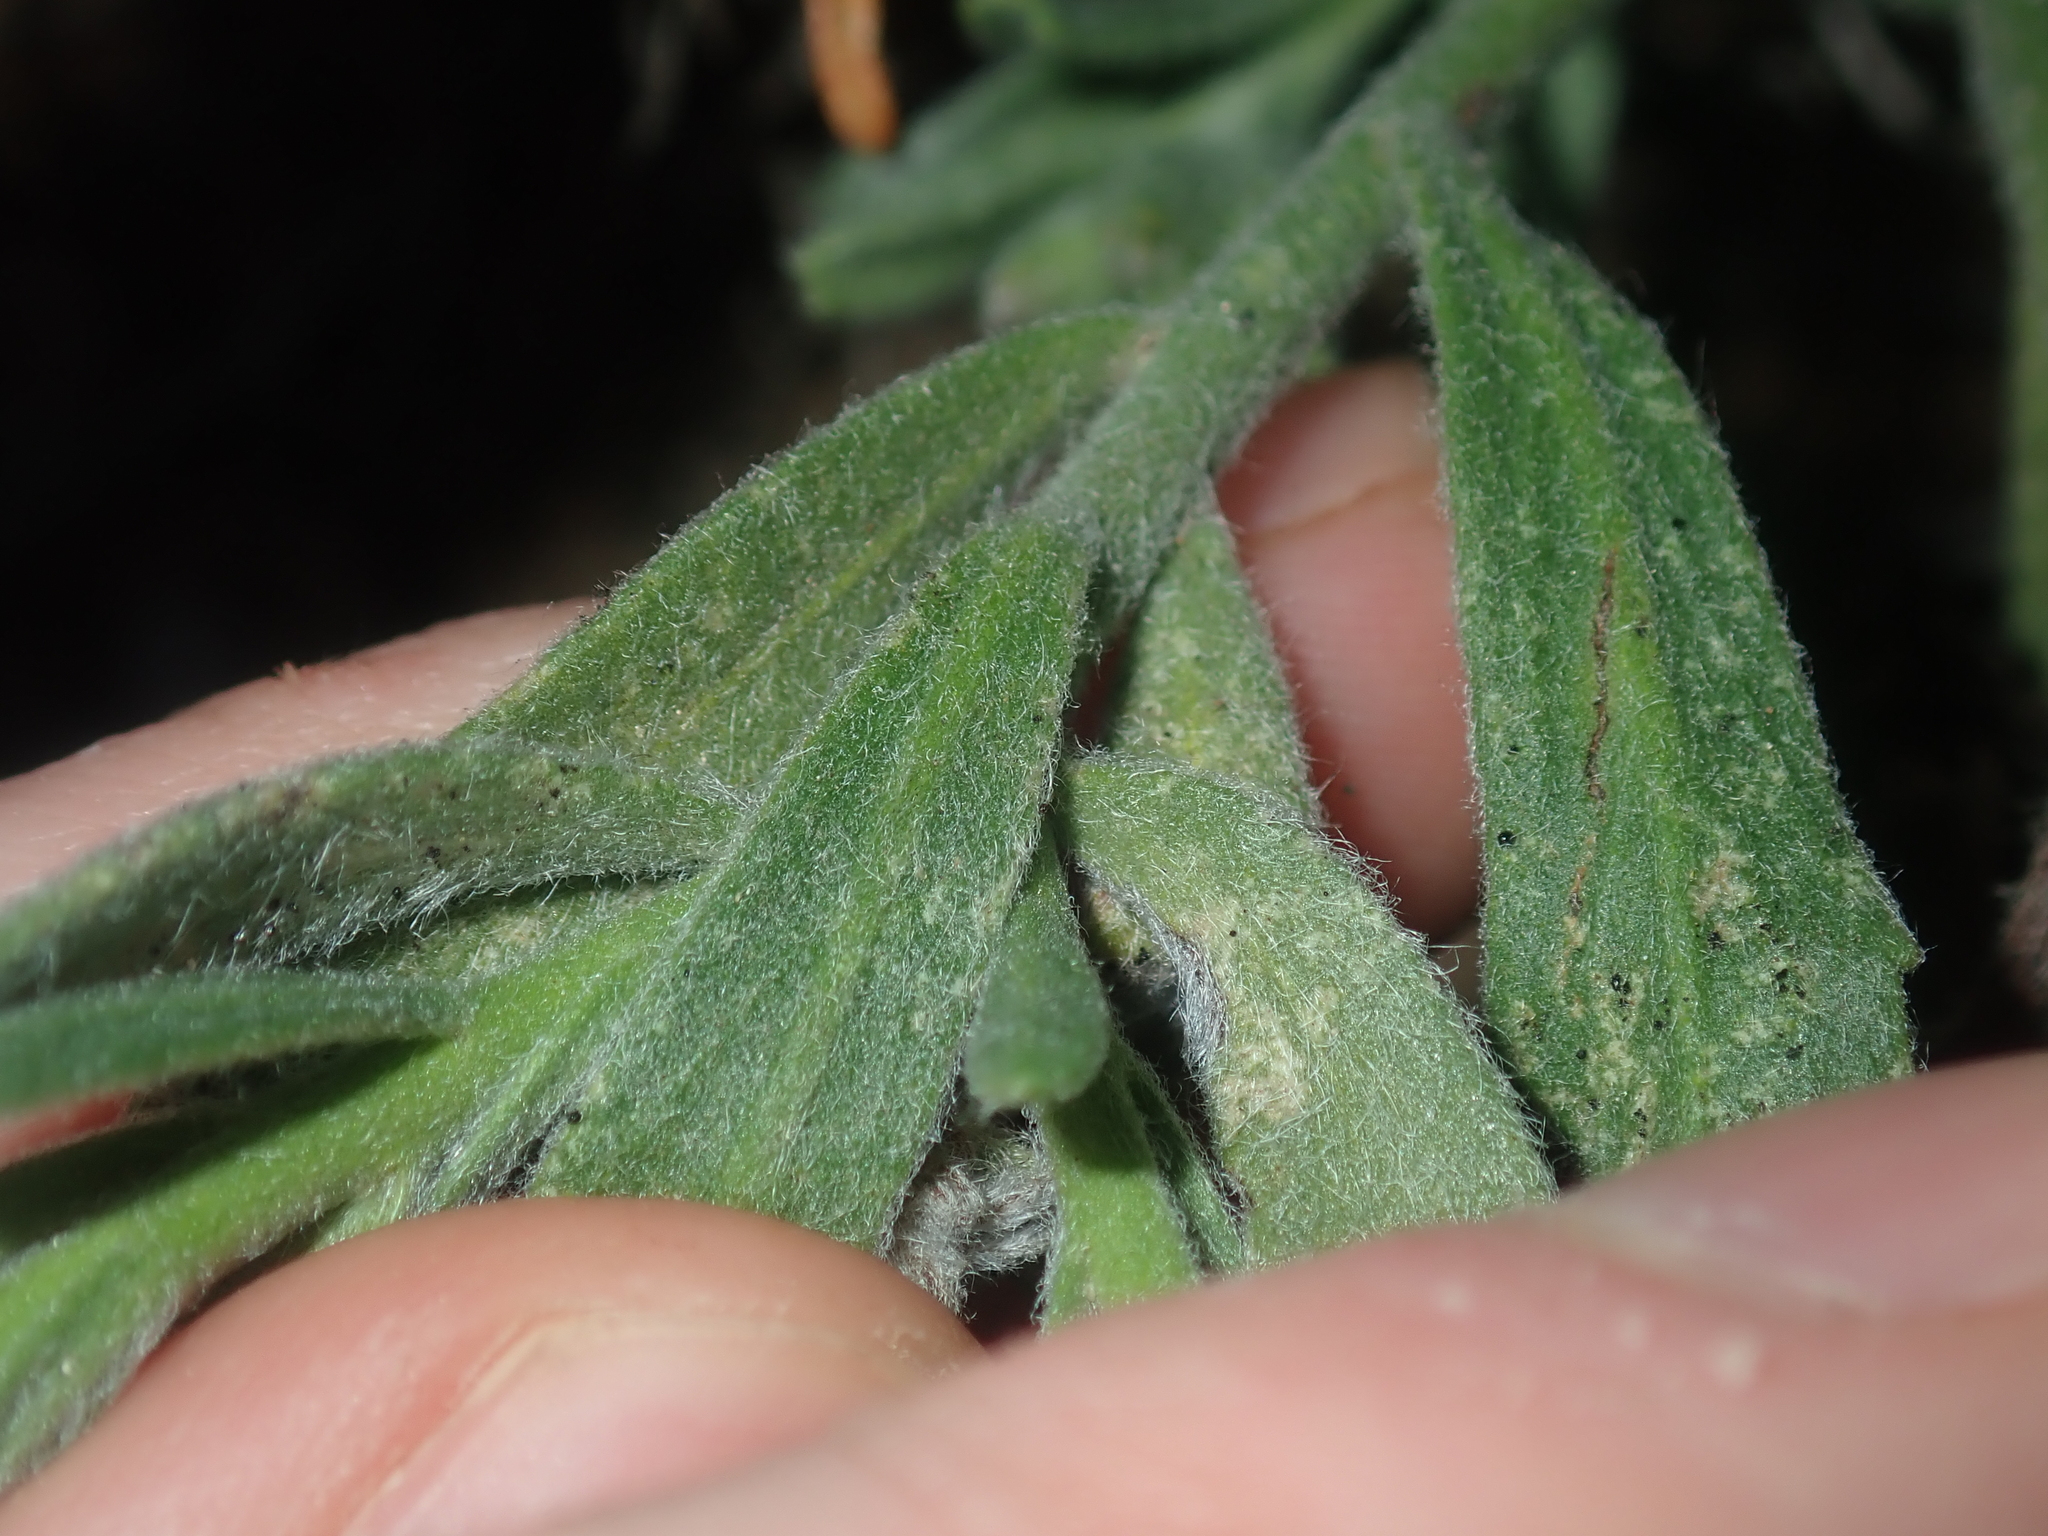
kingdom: Plantae
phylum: Tracheophyta
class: Magnoliopsida
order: Boraginales
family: Ehretiaceae
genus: Halgania
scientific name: Halgania sericiflora
